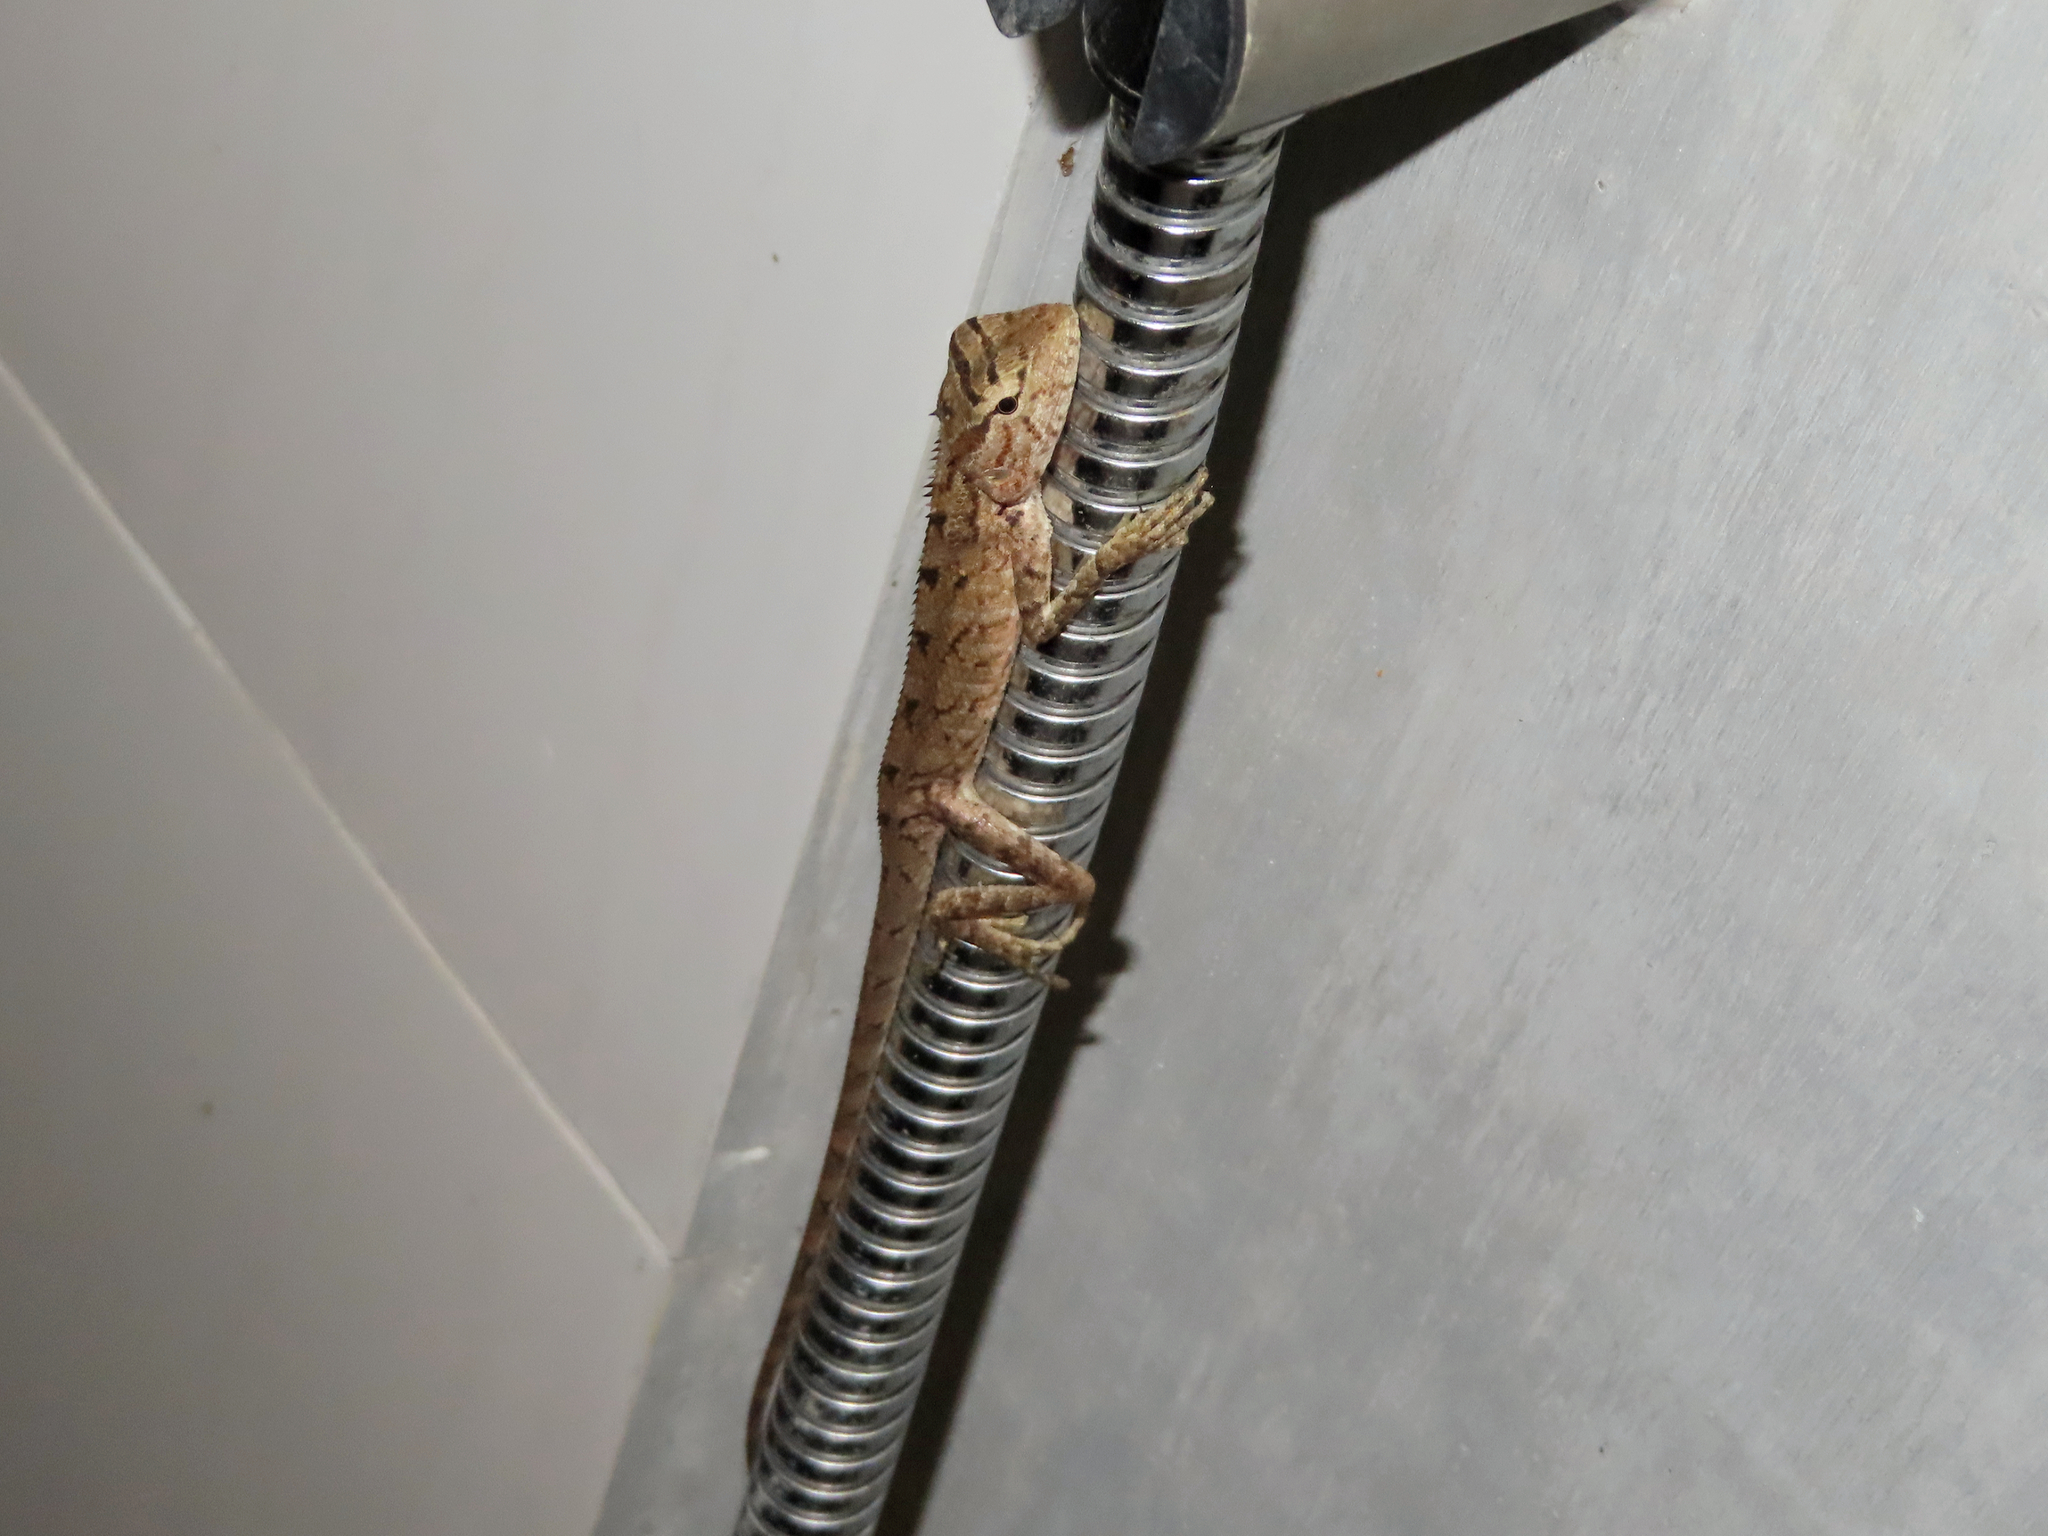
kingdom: Animalia
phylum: Chordata
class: Squamata
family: Agamidae
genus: Calotes
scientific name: Calotes versicolor
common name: Oriental garden lizard
